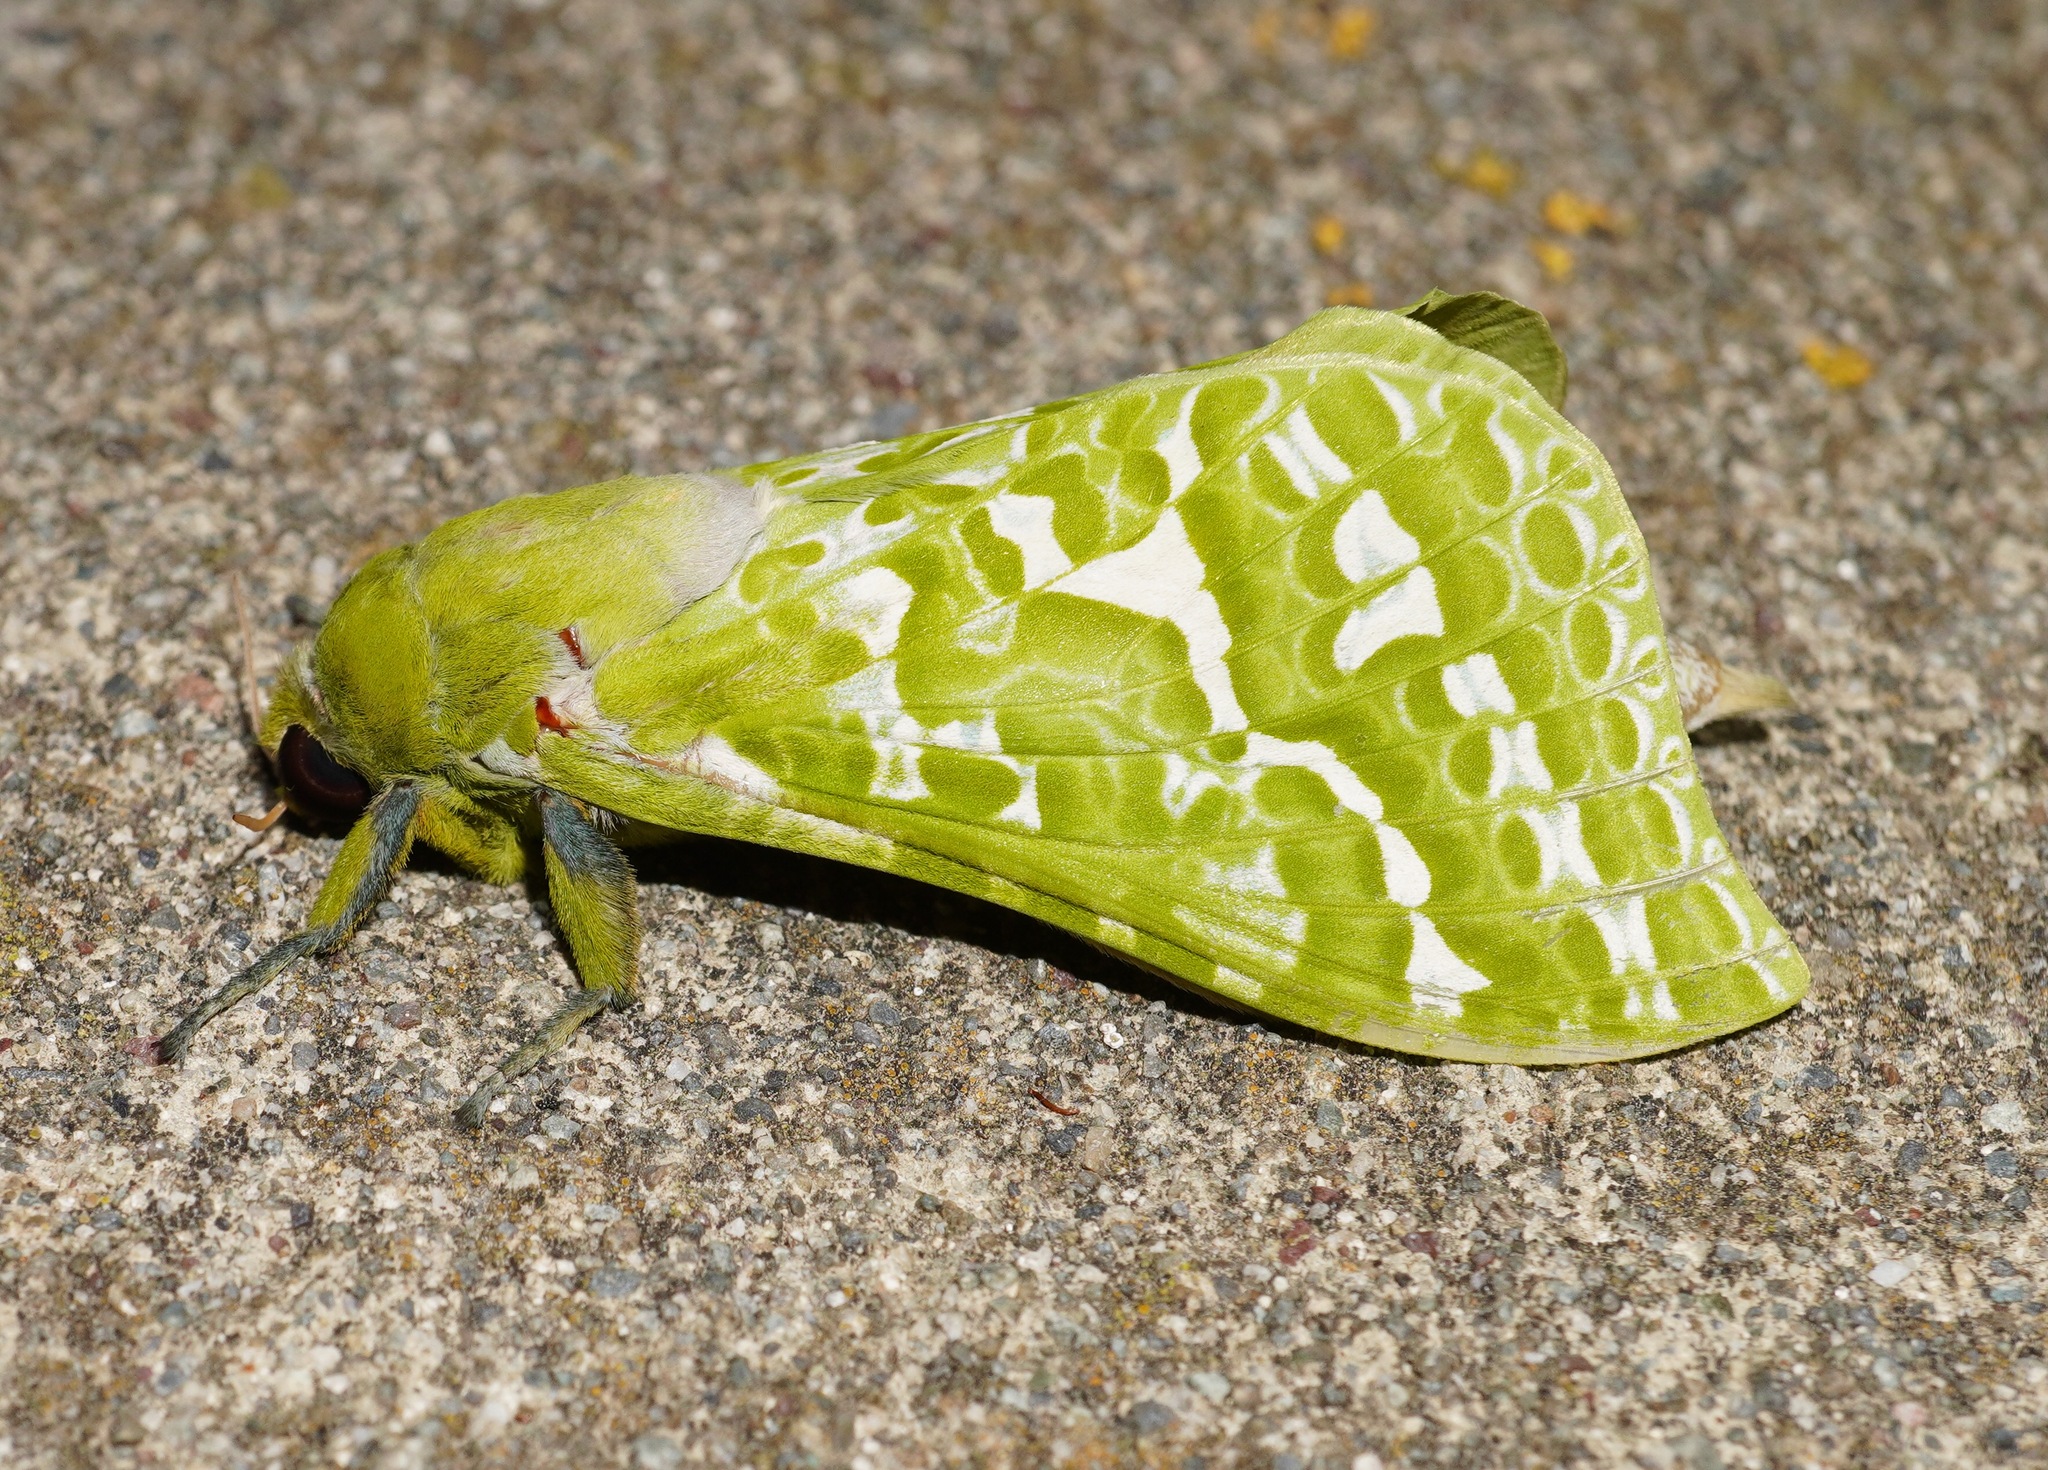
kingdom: Animalia
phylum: Arthropoda
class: Insecta
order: Lepidoptera
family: Hepialidae
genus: Aenetus
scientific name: Aenetus virescens
